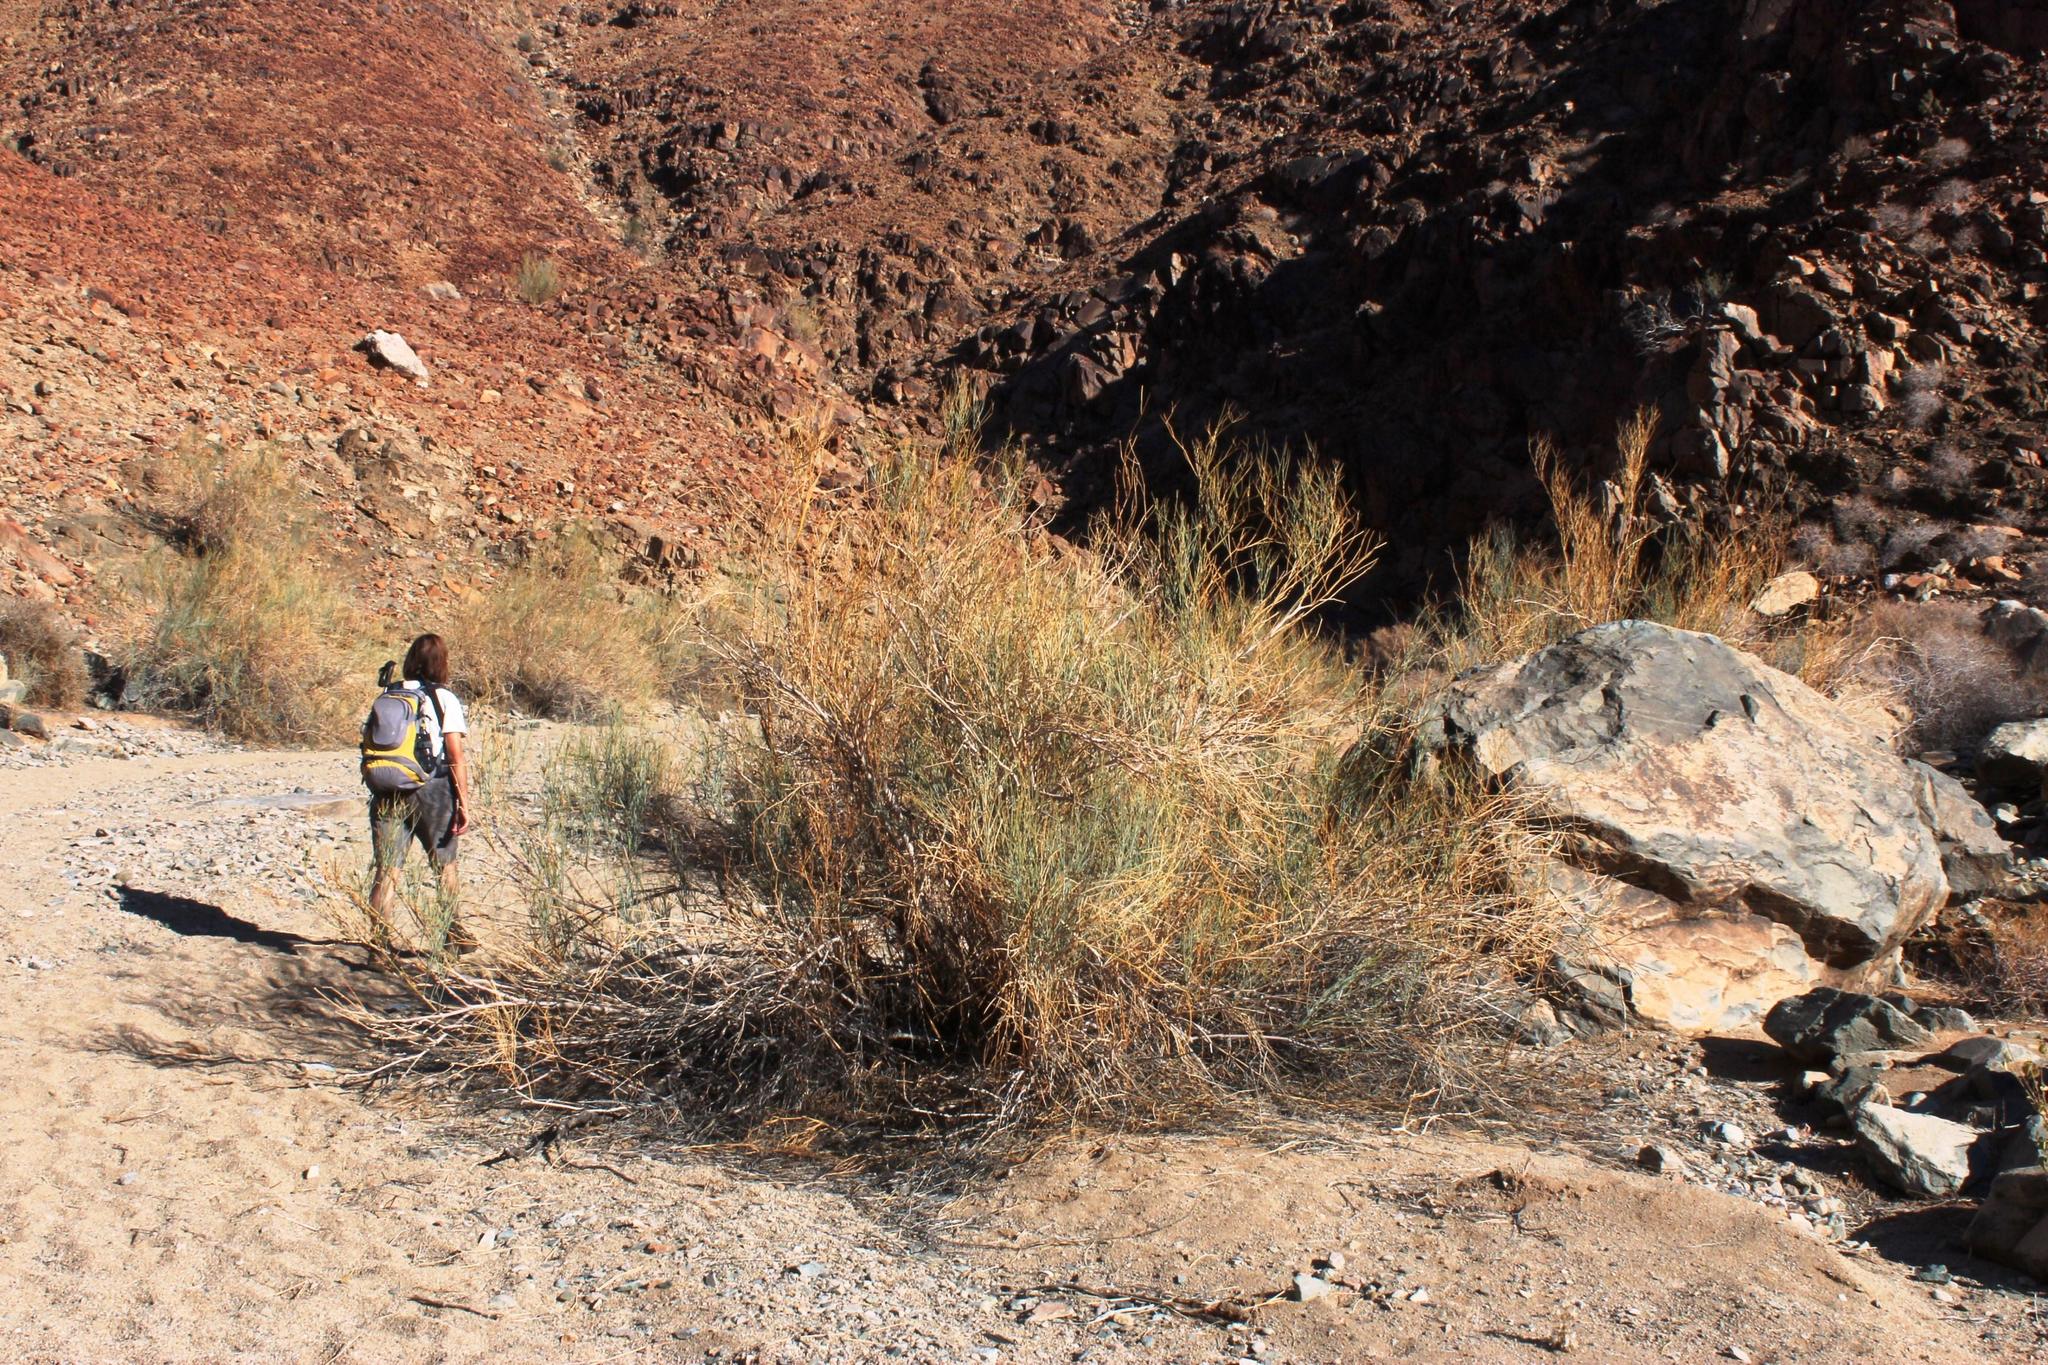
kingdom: Plantae
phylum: Tracheophyta
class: Magnoliopsida
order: Zygophyllales
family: Zygophyllaceae
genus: Sisyndite
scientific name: Sisyndite spartea
